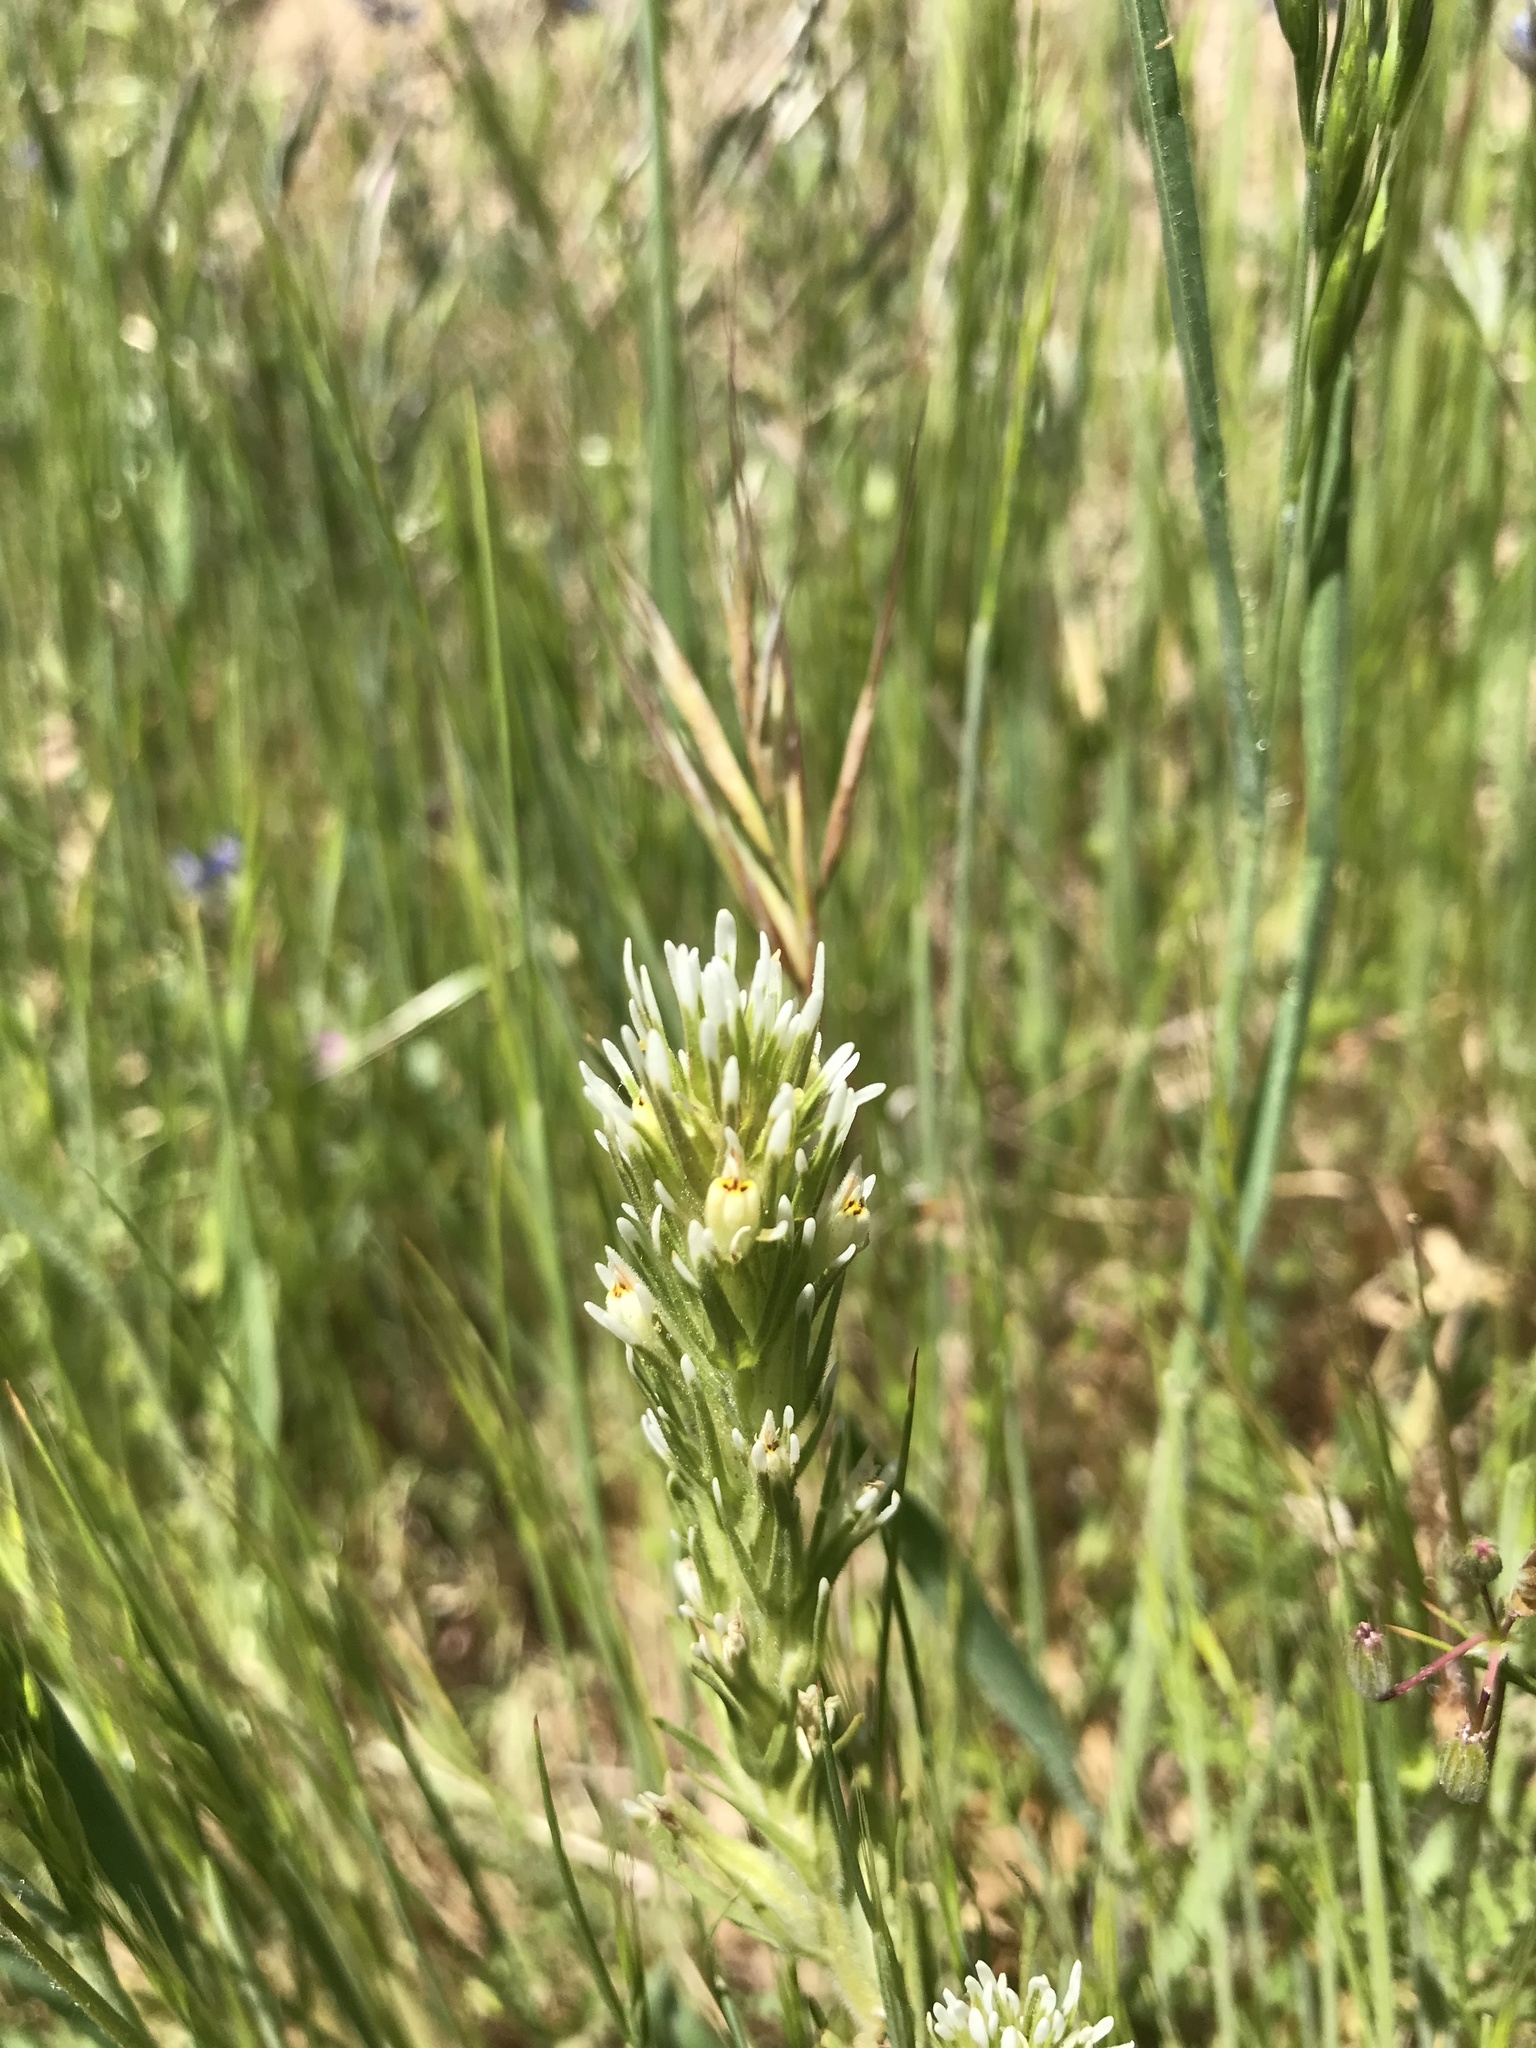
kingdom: Plantae
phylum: Tracheophyta
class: Magnoliopsida
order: Lamiales
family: Orobanchaceae
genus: Castilleja
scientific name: Castilleja attenuata
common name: Valley tassels
